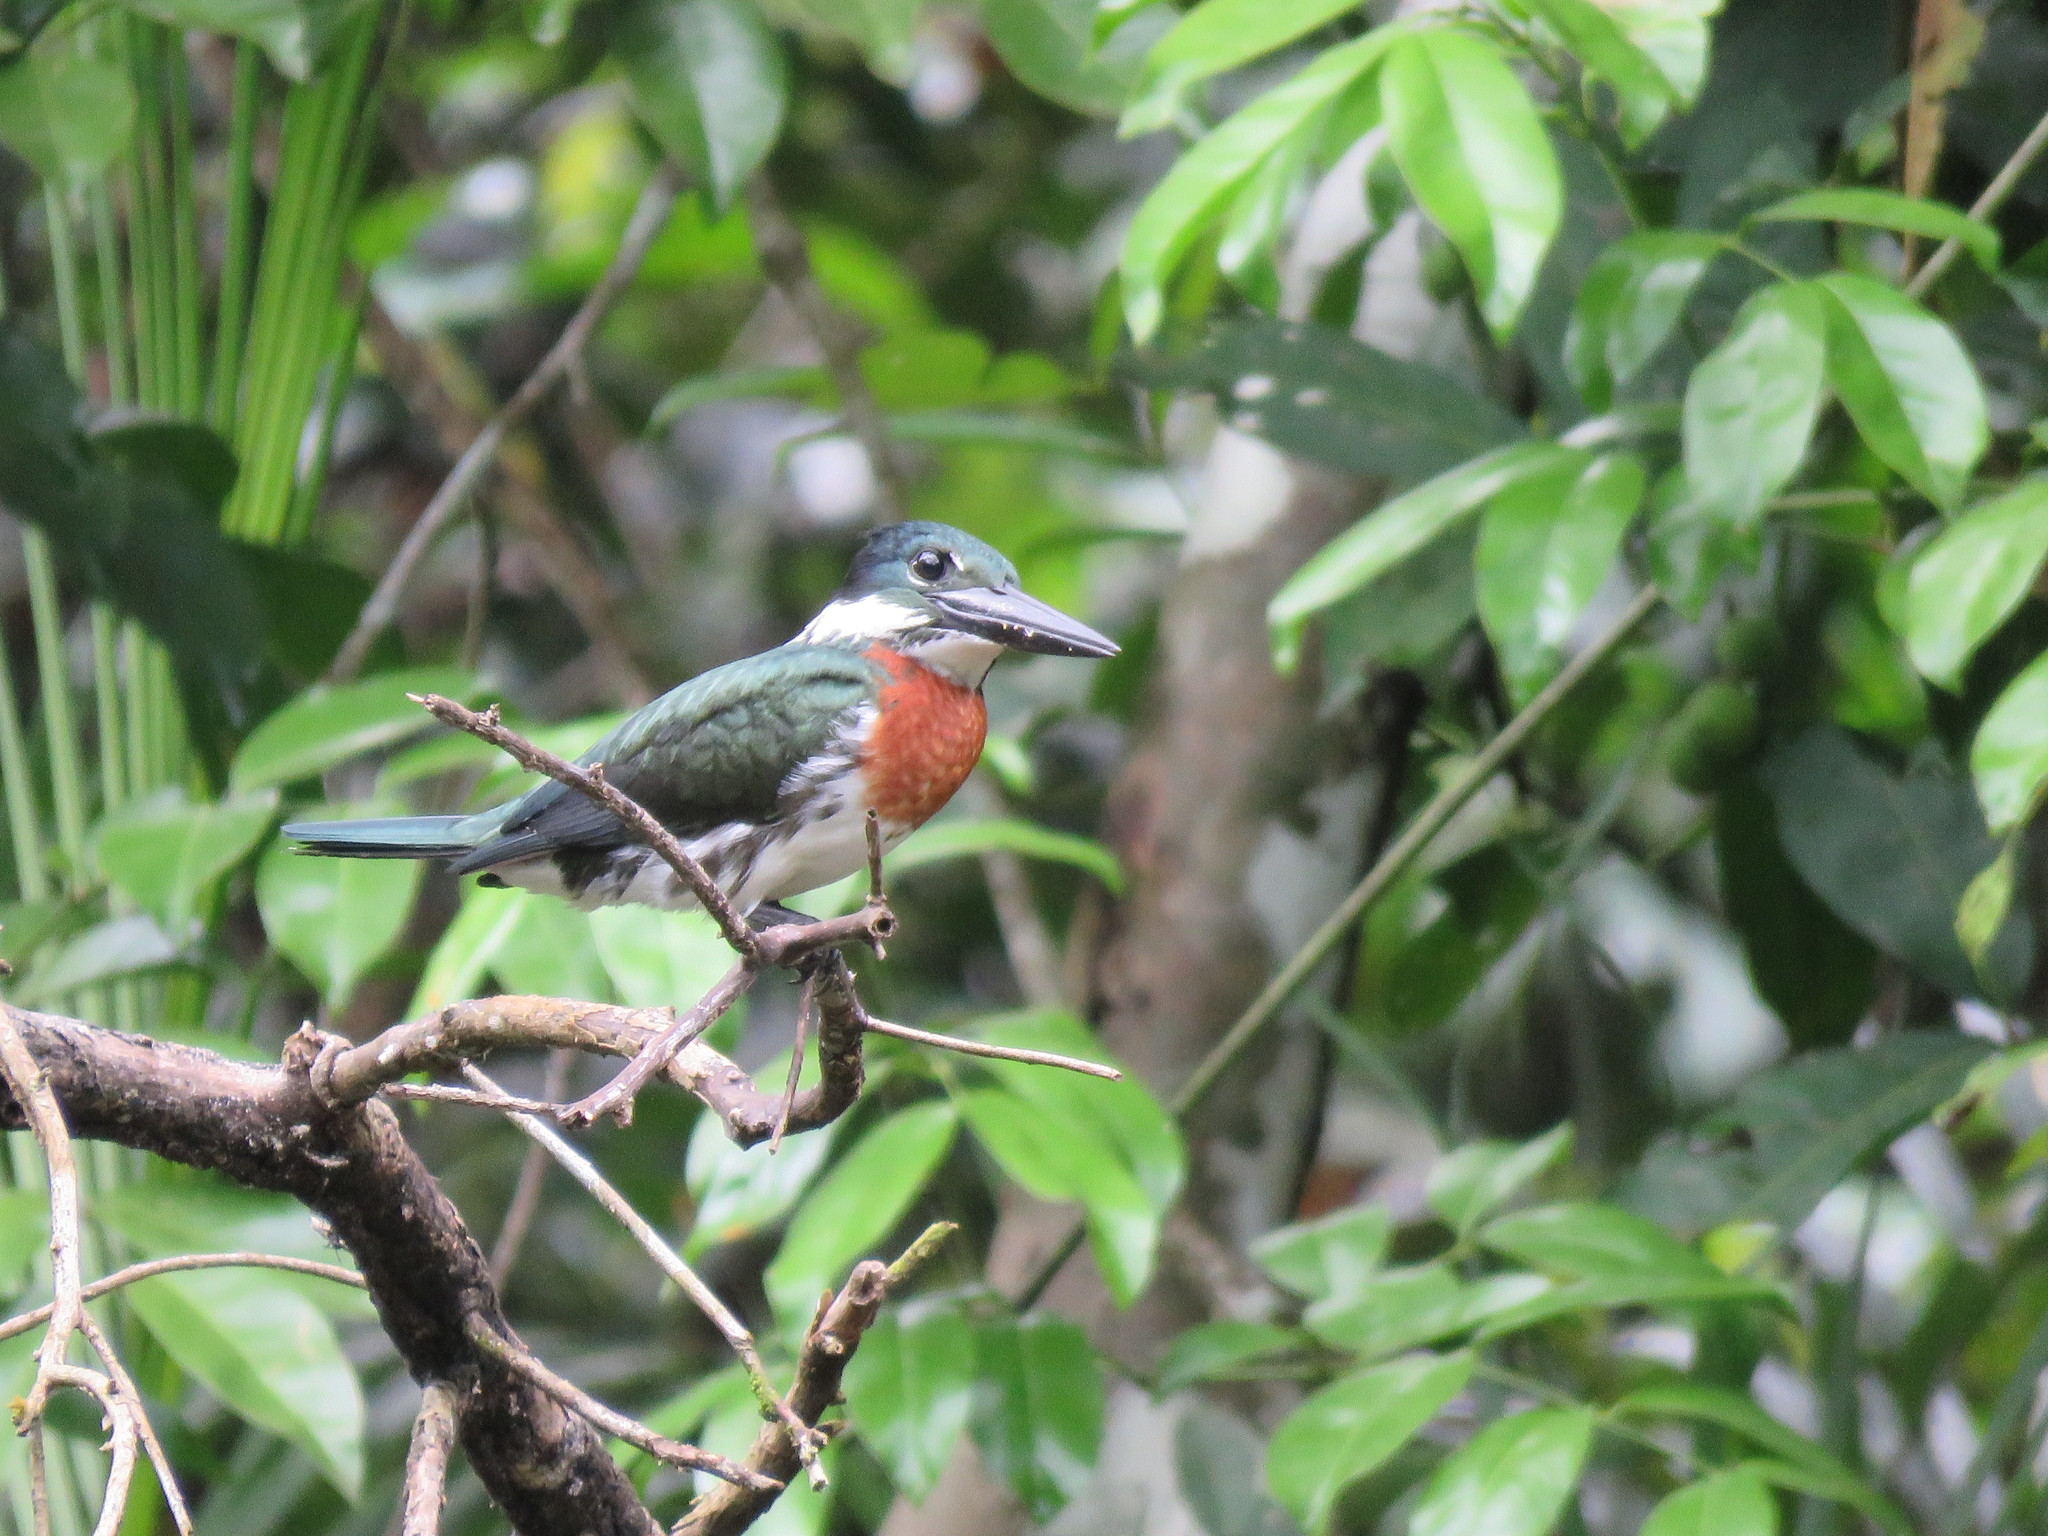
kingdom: Animalia
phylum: Chordata
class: Aves
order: Coraciiformes
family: Alcedinidae
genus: Chloroceryle
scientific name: Chloroceryle amazona
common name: Amazon kingfisher
